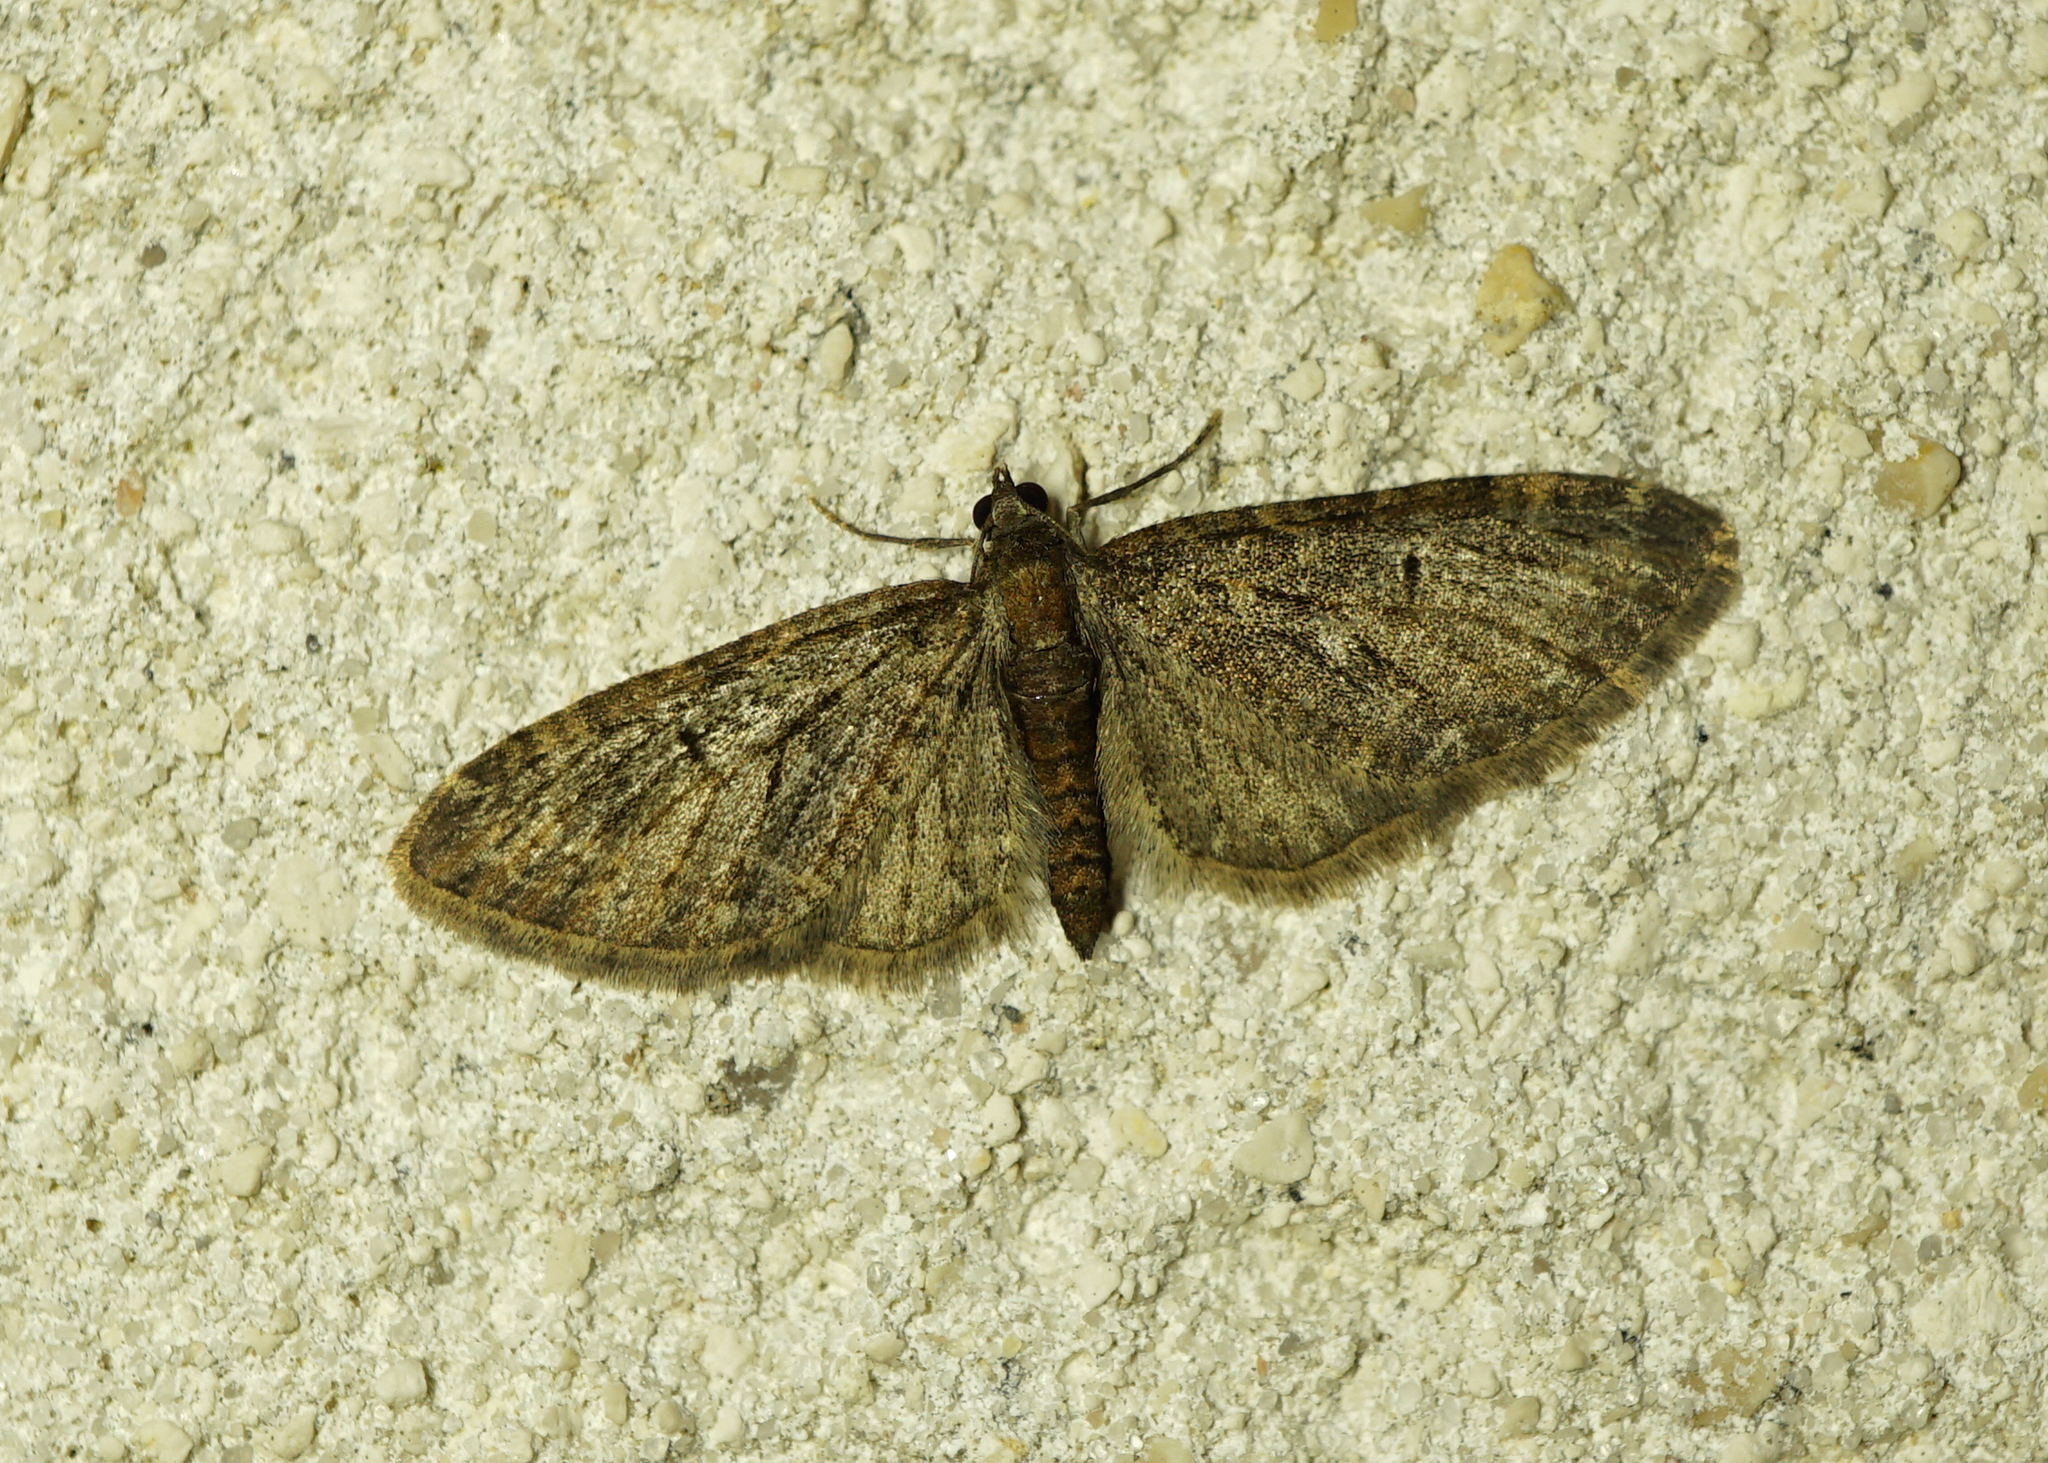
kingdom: Animalia
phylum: Arthropoda
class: Insecta
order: Lepidoptera
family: Geometridae
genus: Eupithecia
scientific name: Eupithecia abbreviata
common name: Brindled pug
